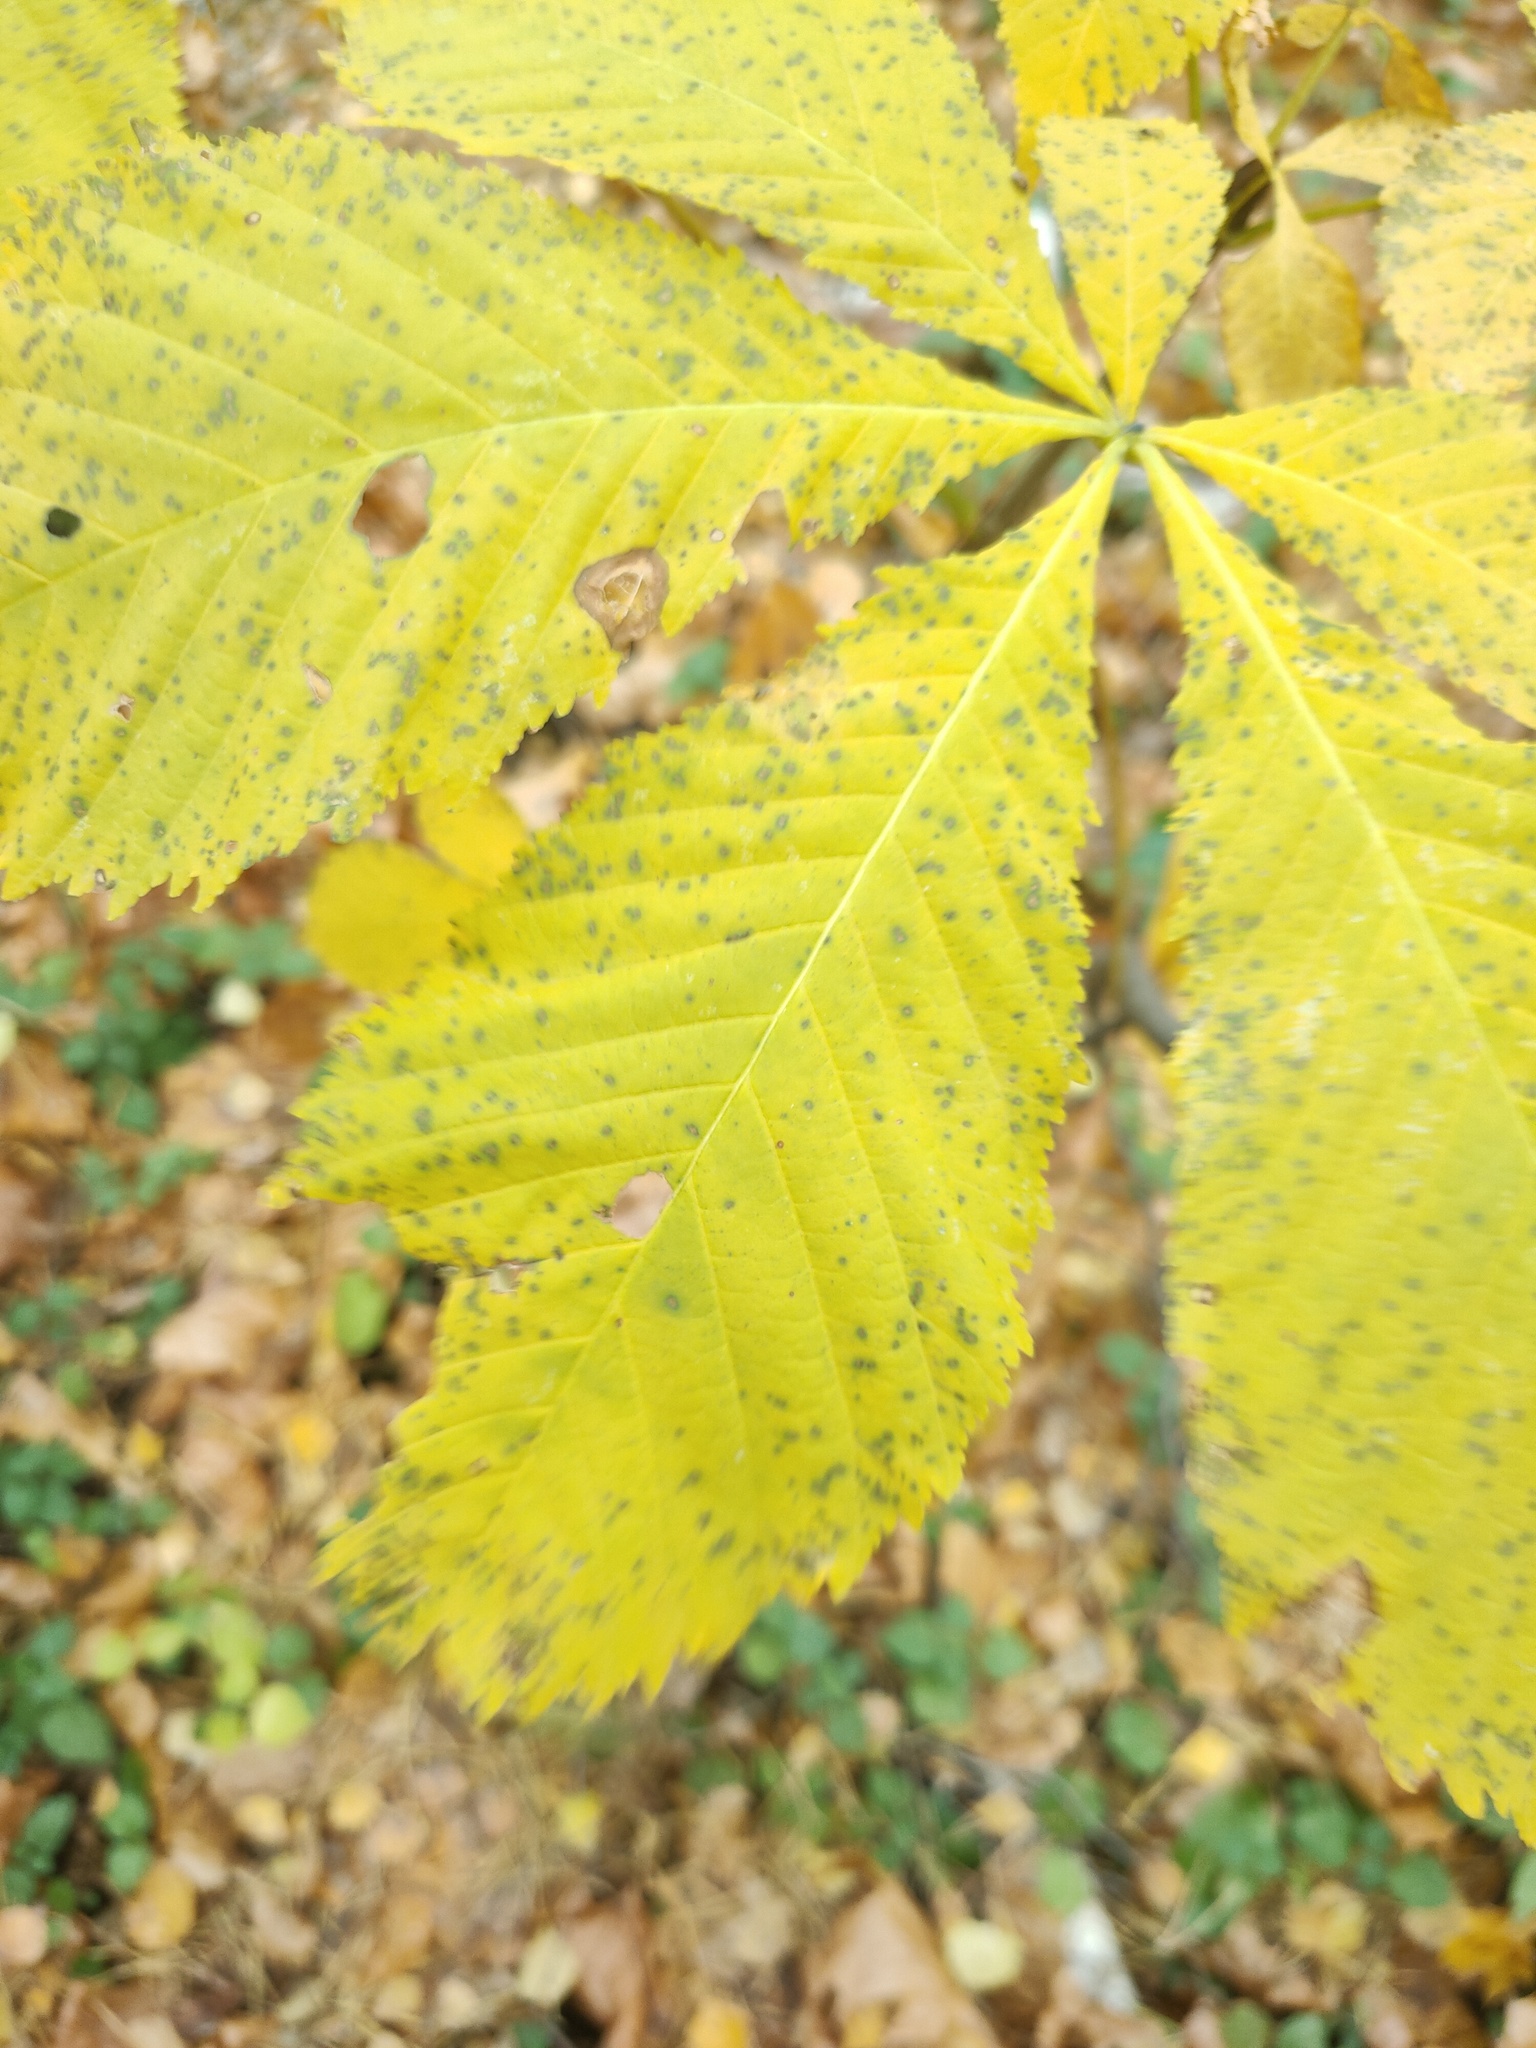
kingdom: Plantae
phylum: Tracheophyta
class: Magnoliopsida
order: Sapindales
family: Sapindaceae
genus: Aesculus
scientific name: Aesculus hippocastanum
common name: Horse-chestnut
